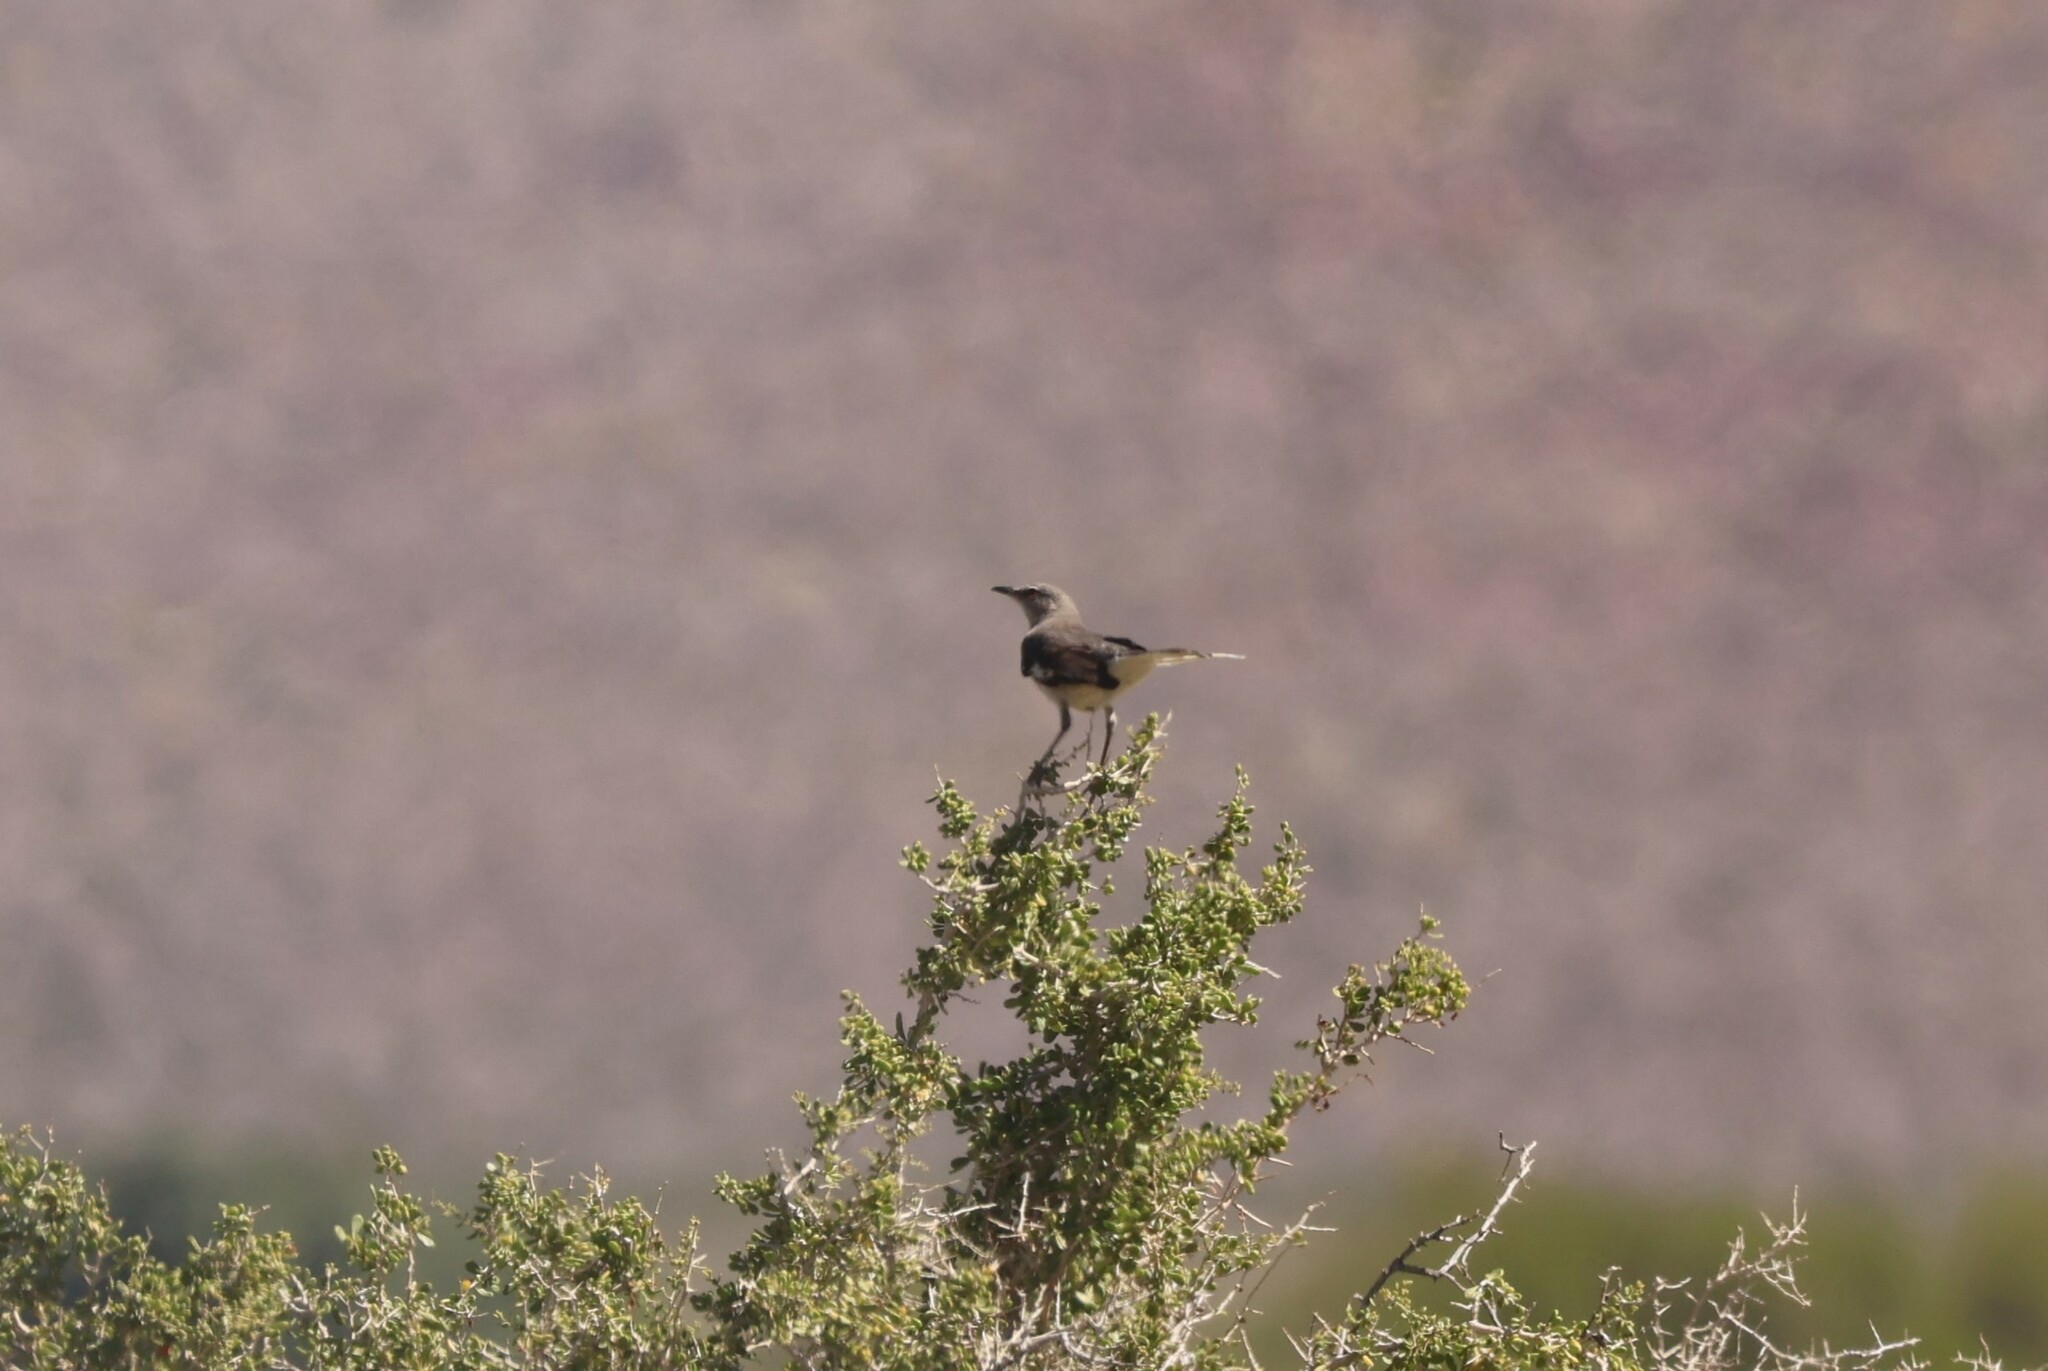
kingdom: Animalia
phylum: Chordata
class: Aves
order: Passeriformes
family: Mimidae
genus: Mimus
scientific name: Mimus polyglottos
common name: Northern mockingbird
